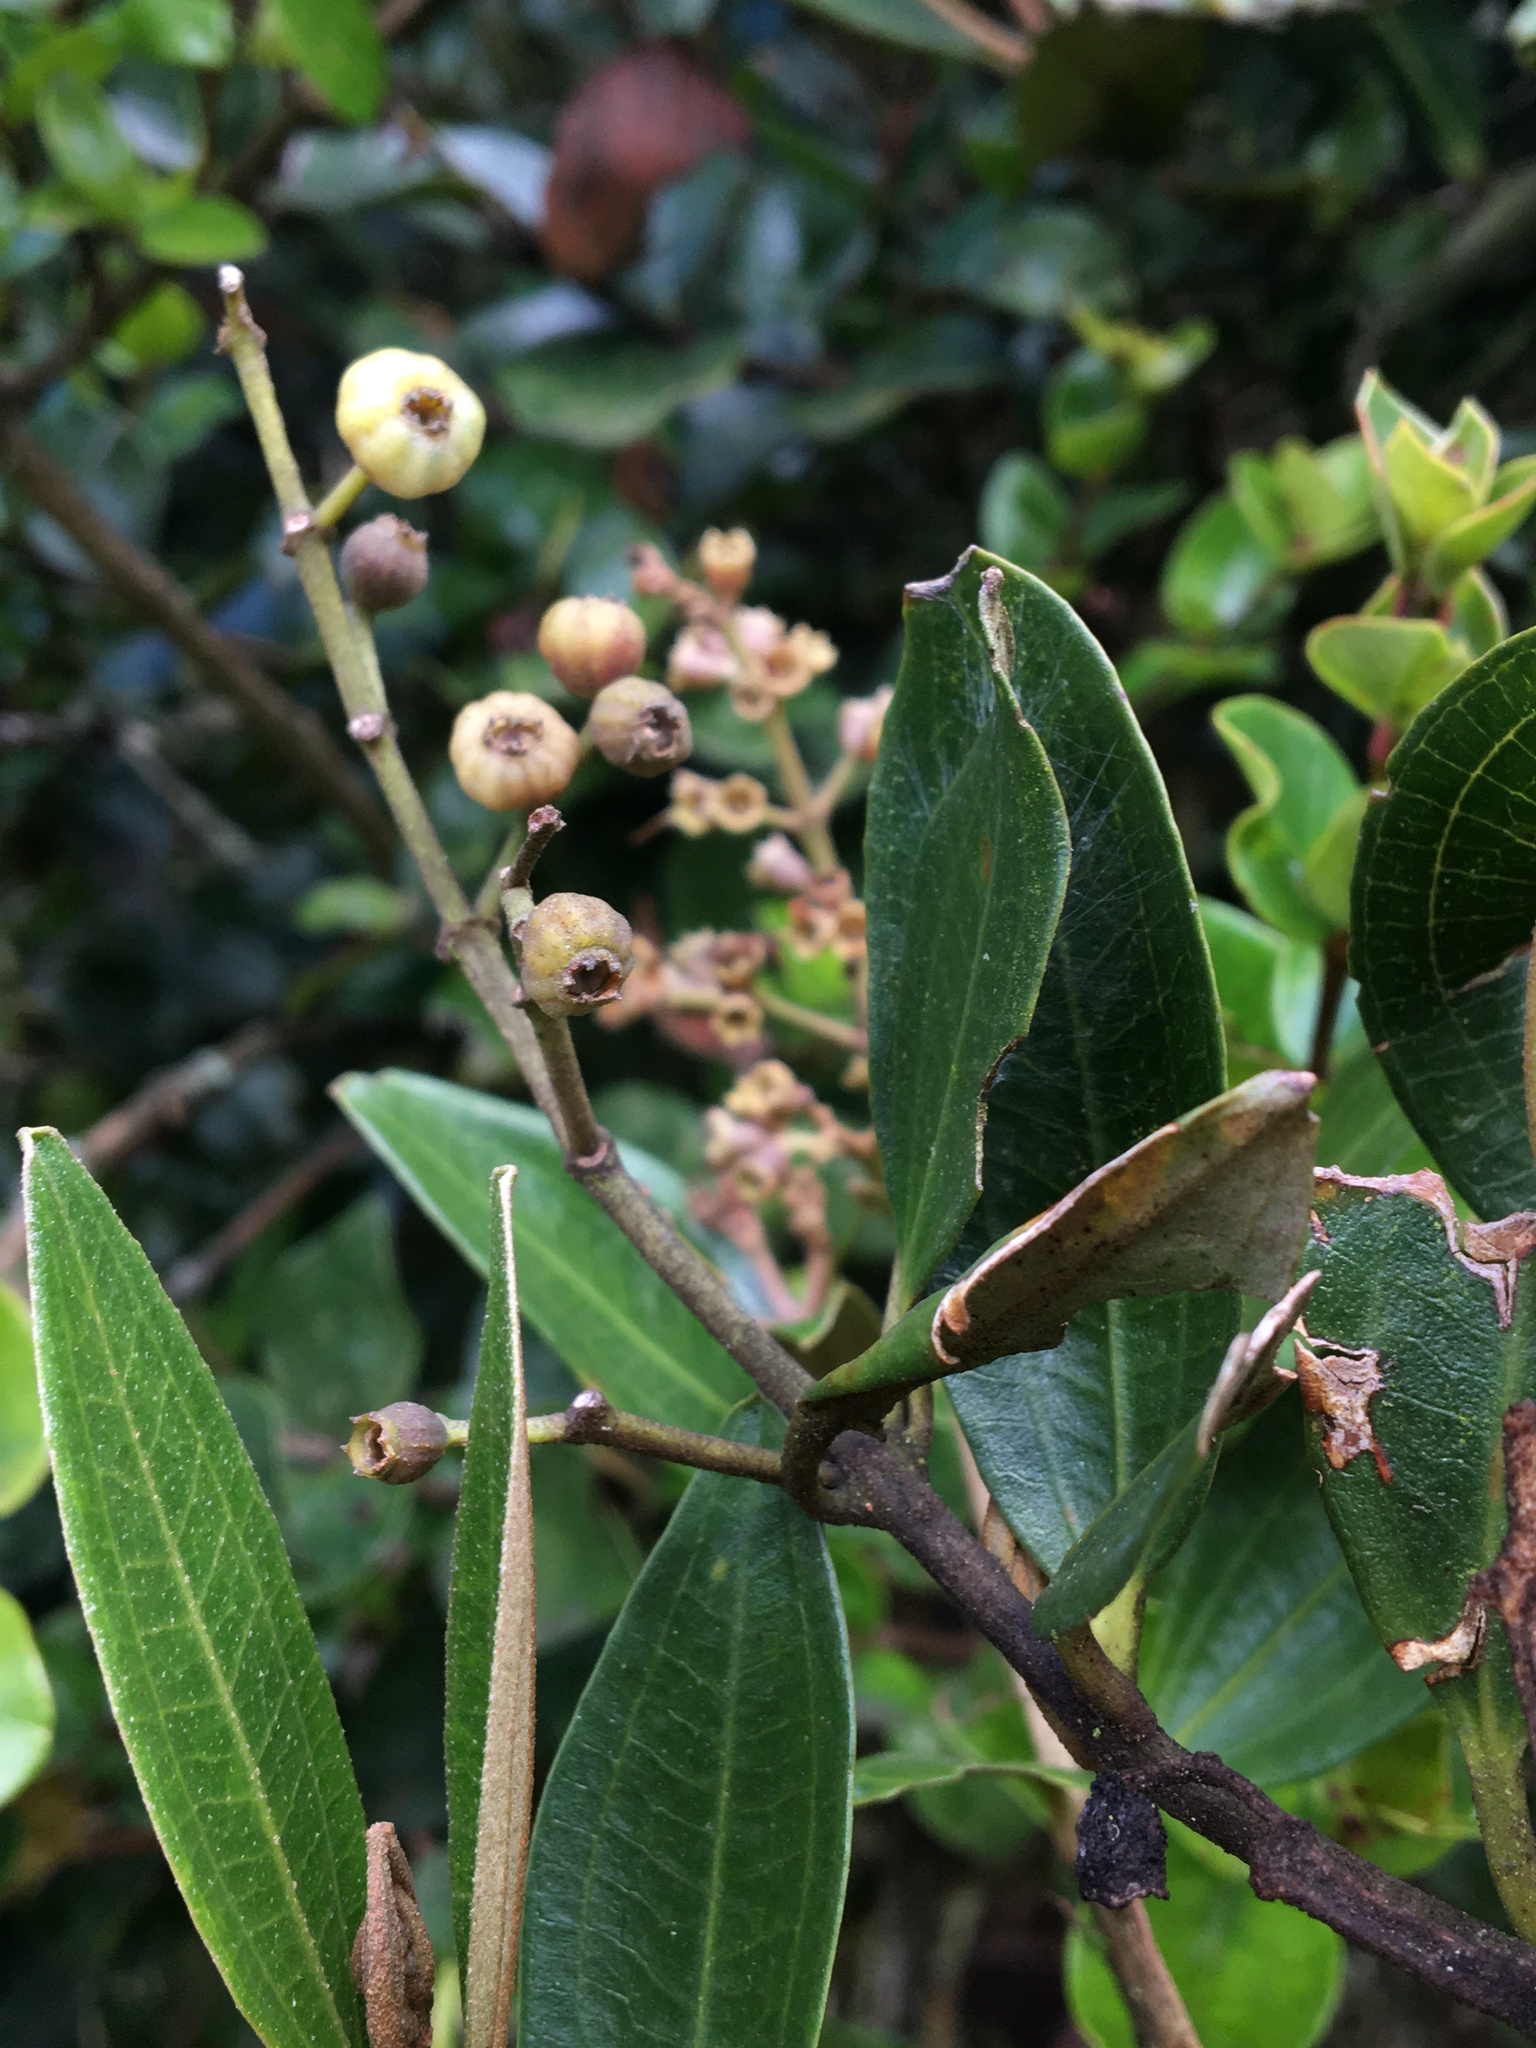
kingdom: Plantae
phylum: Tracheophyta
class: Magnoliopsida
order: Myrtales
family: Melastomataceae
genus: Miconia
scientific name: Miconia squamulosa
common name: Squamulose maya
